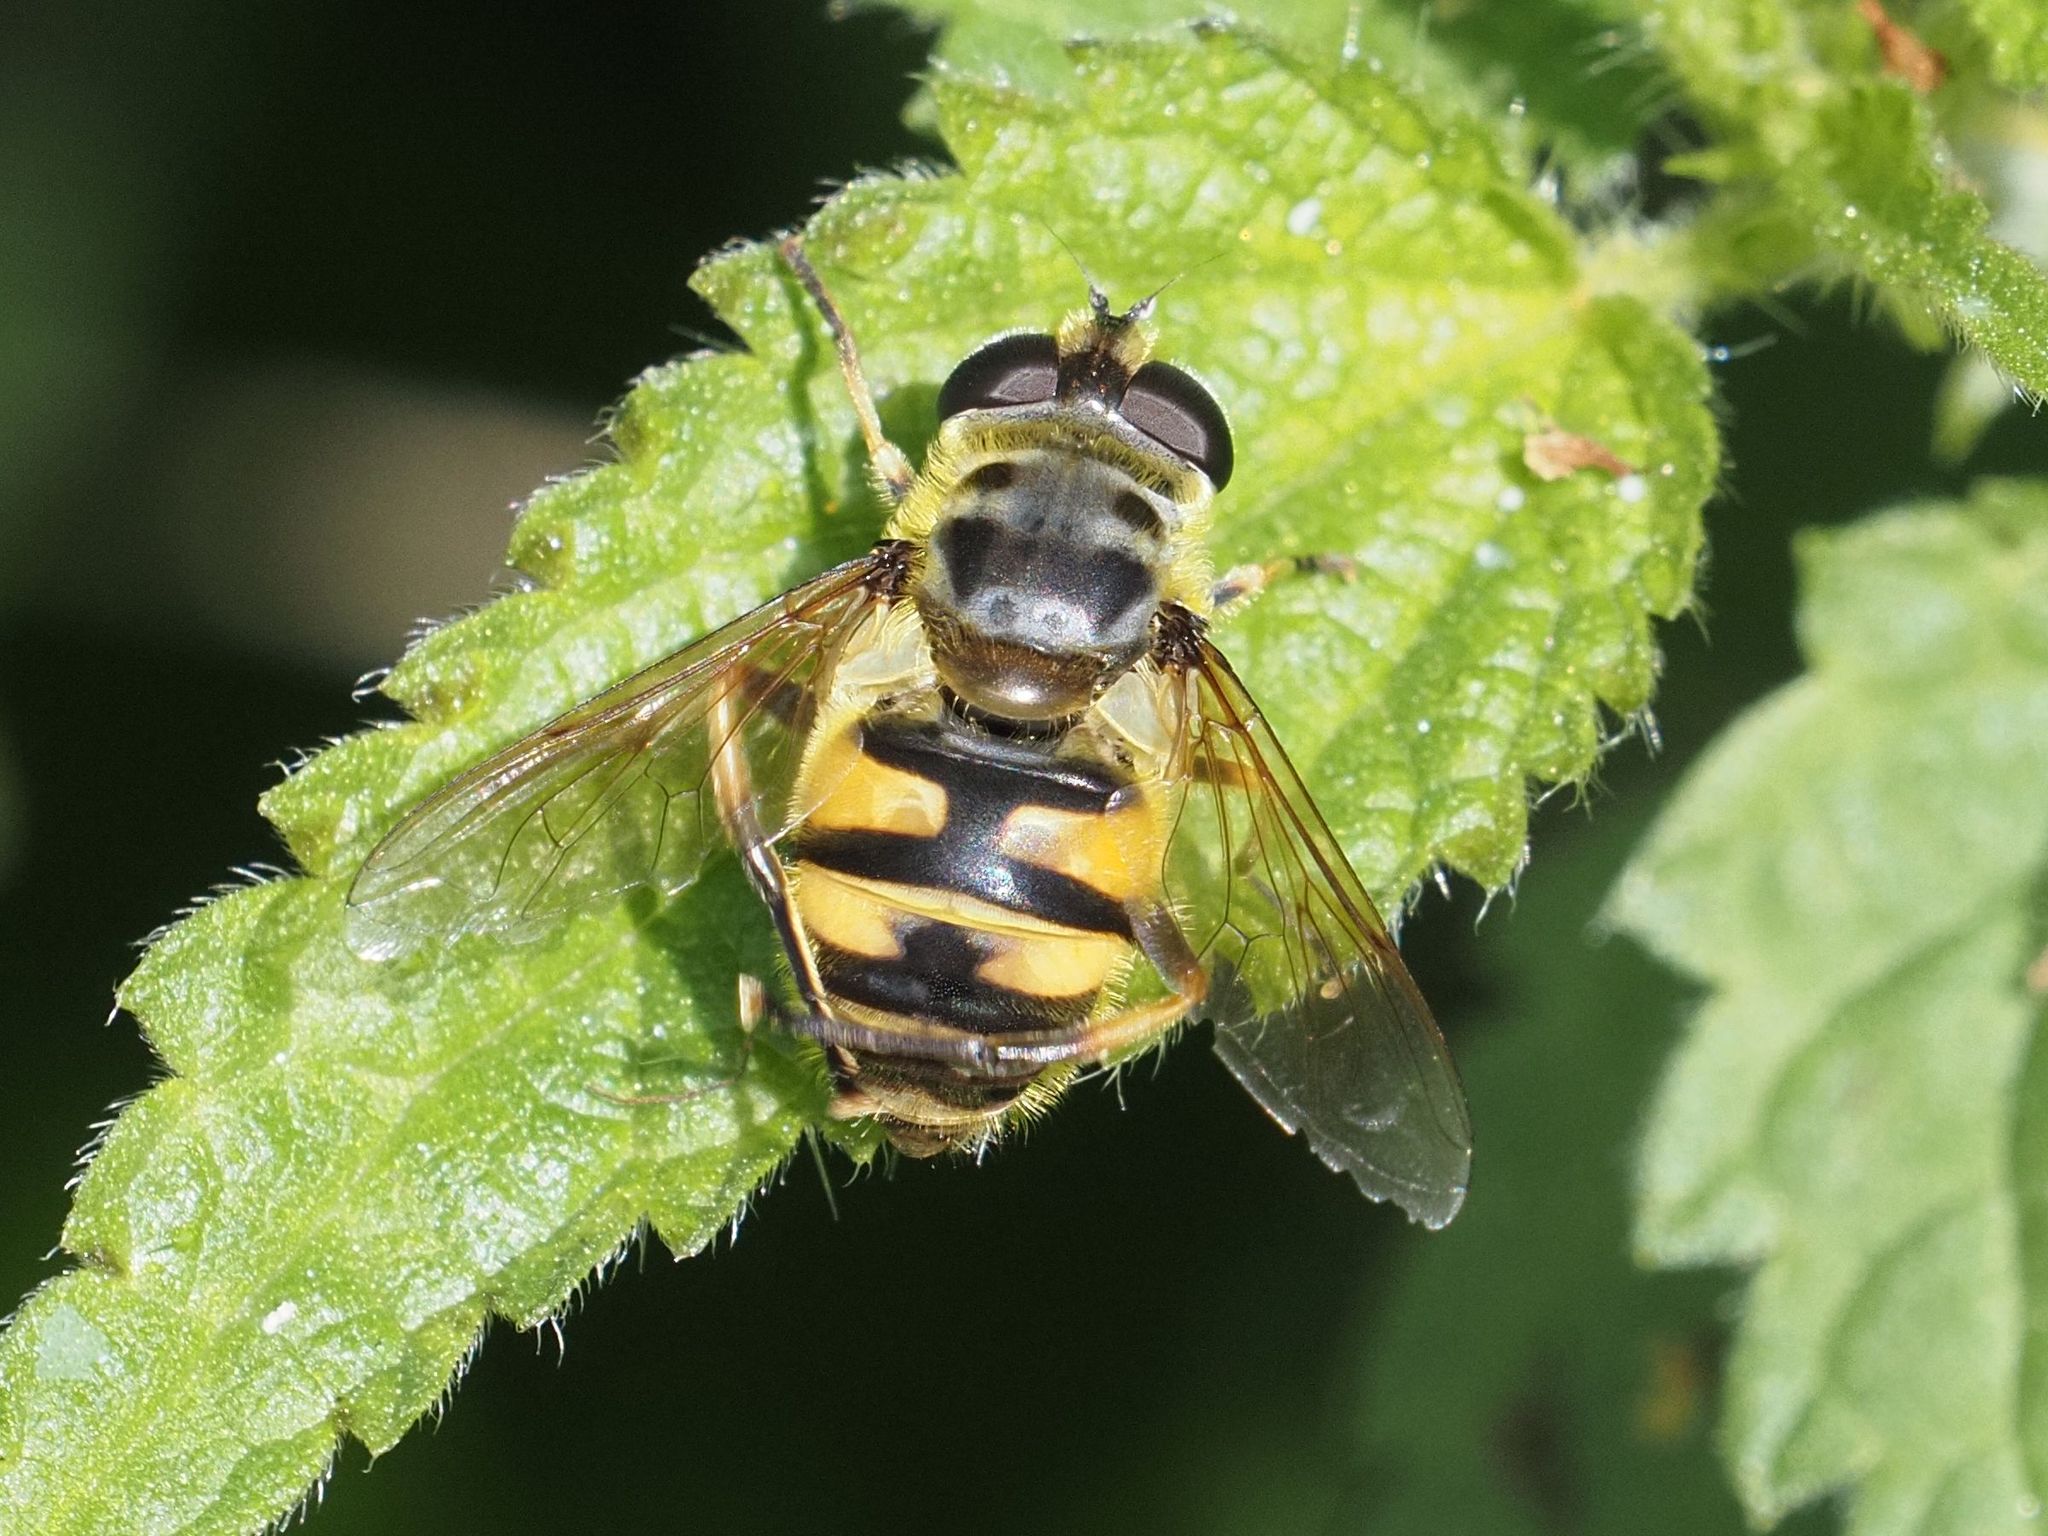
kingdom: Animalia
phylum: Arthropoda
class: Insecta
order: Diptera
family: Syrphidae
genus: Myathropa
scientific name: Myathropa florea
